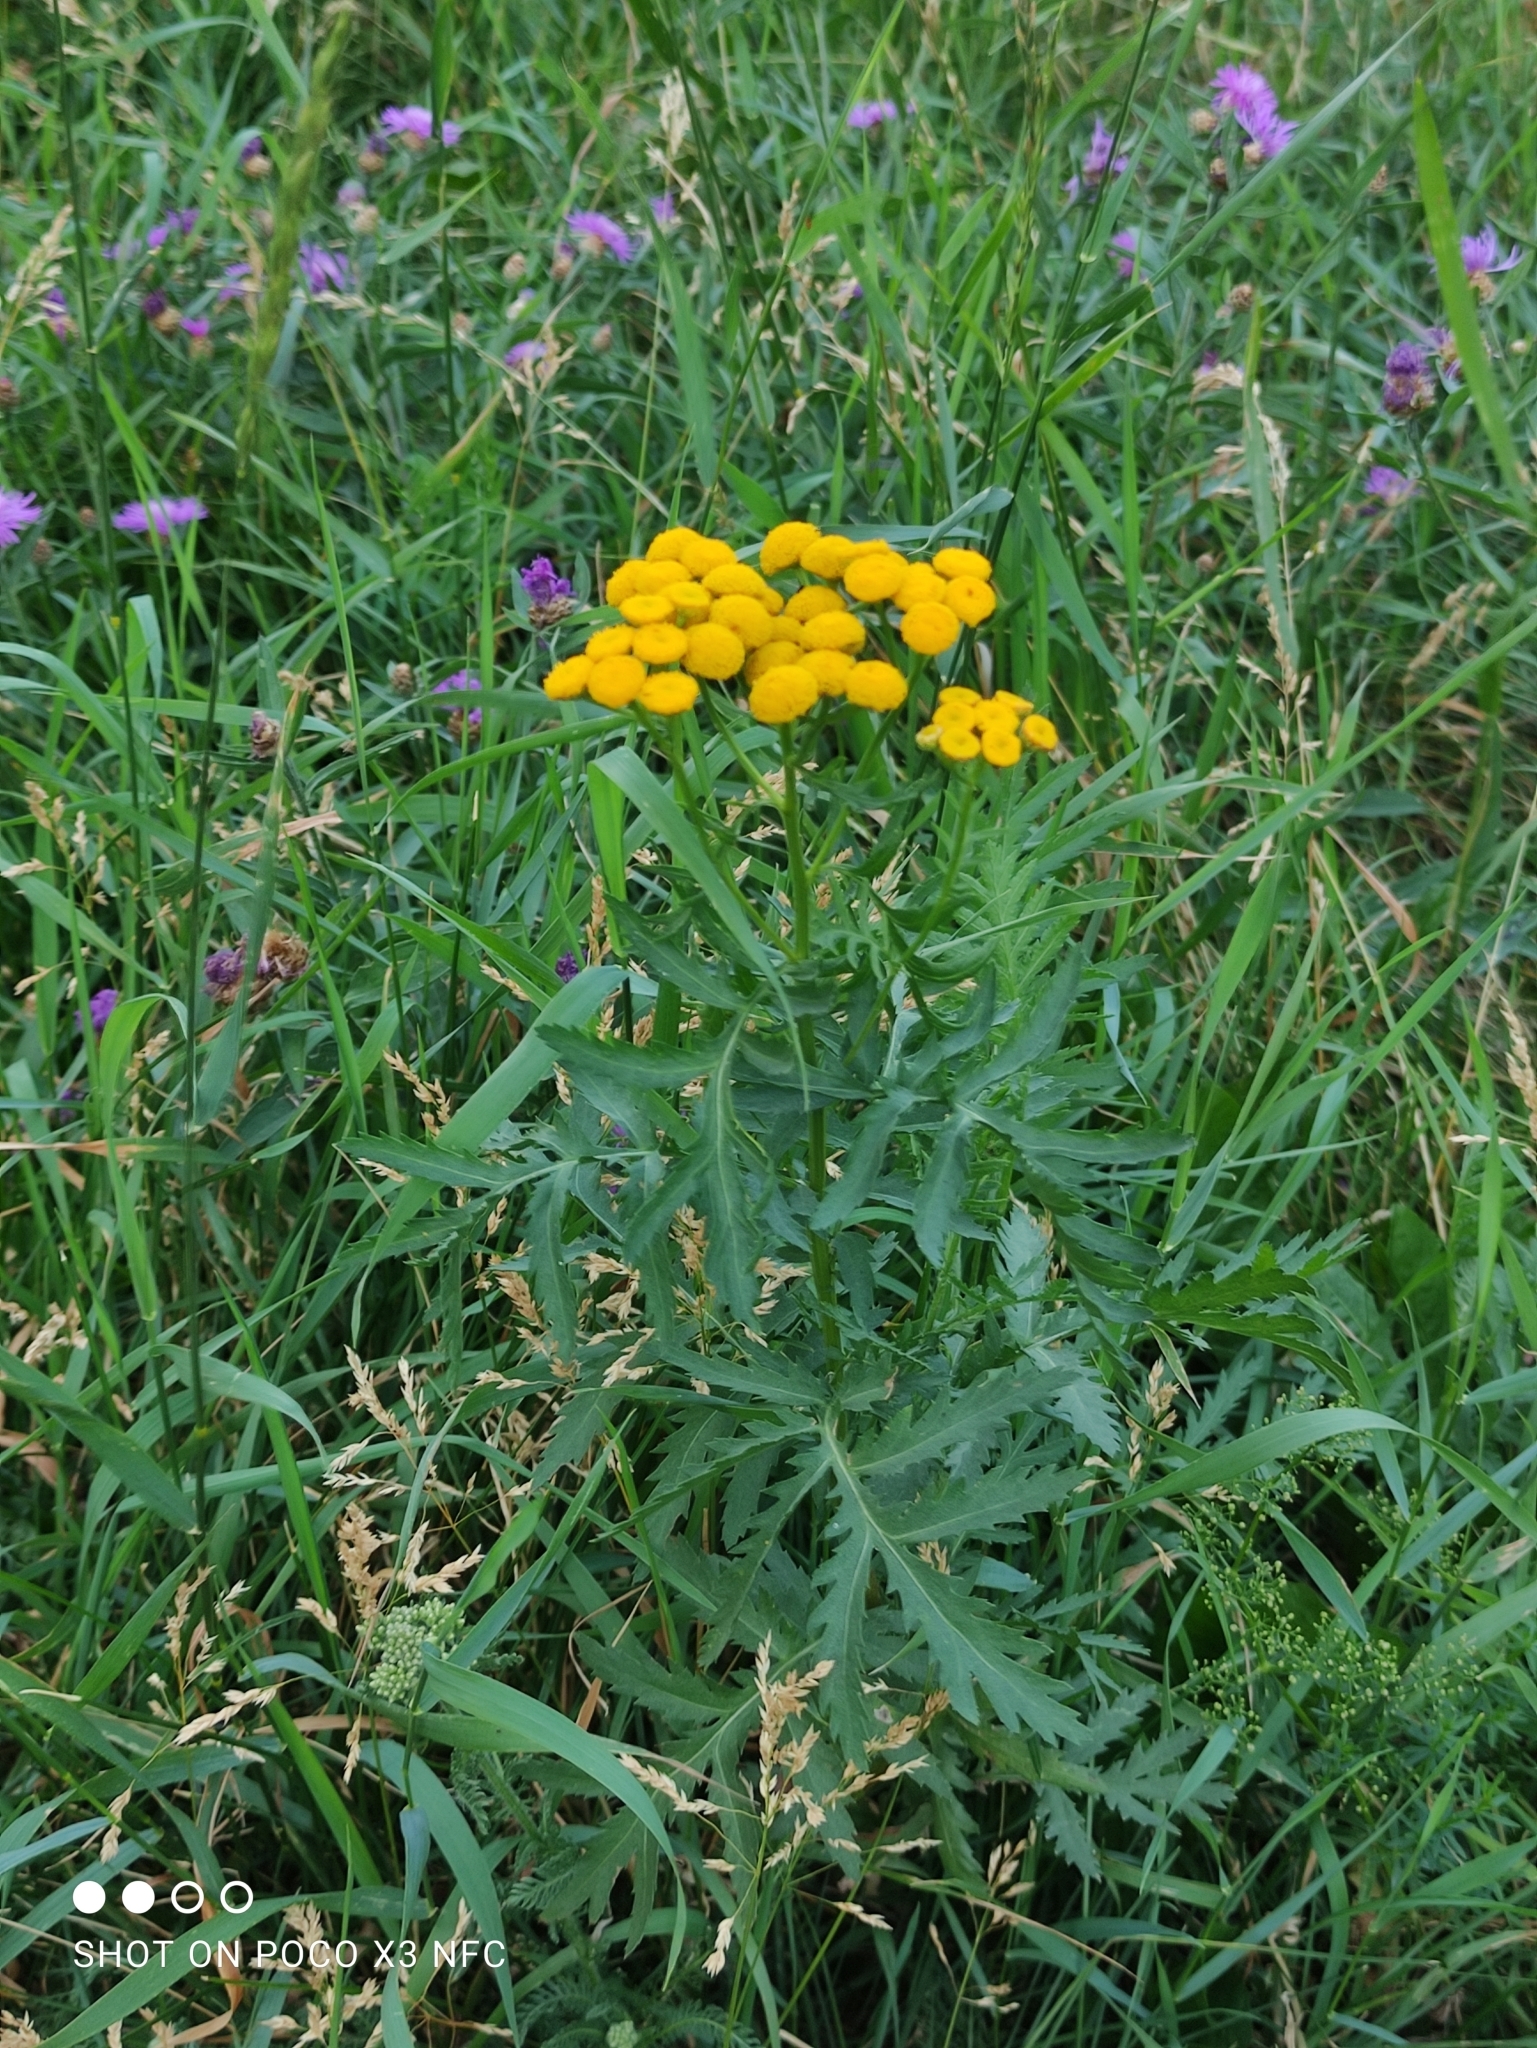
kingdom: Plantae
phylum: Tracheophyta
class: Magnoliopsida
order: Asterales
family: Asteraceae
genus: Tanacetum
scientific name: Tanacetum vulgare
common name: Common tansy
